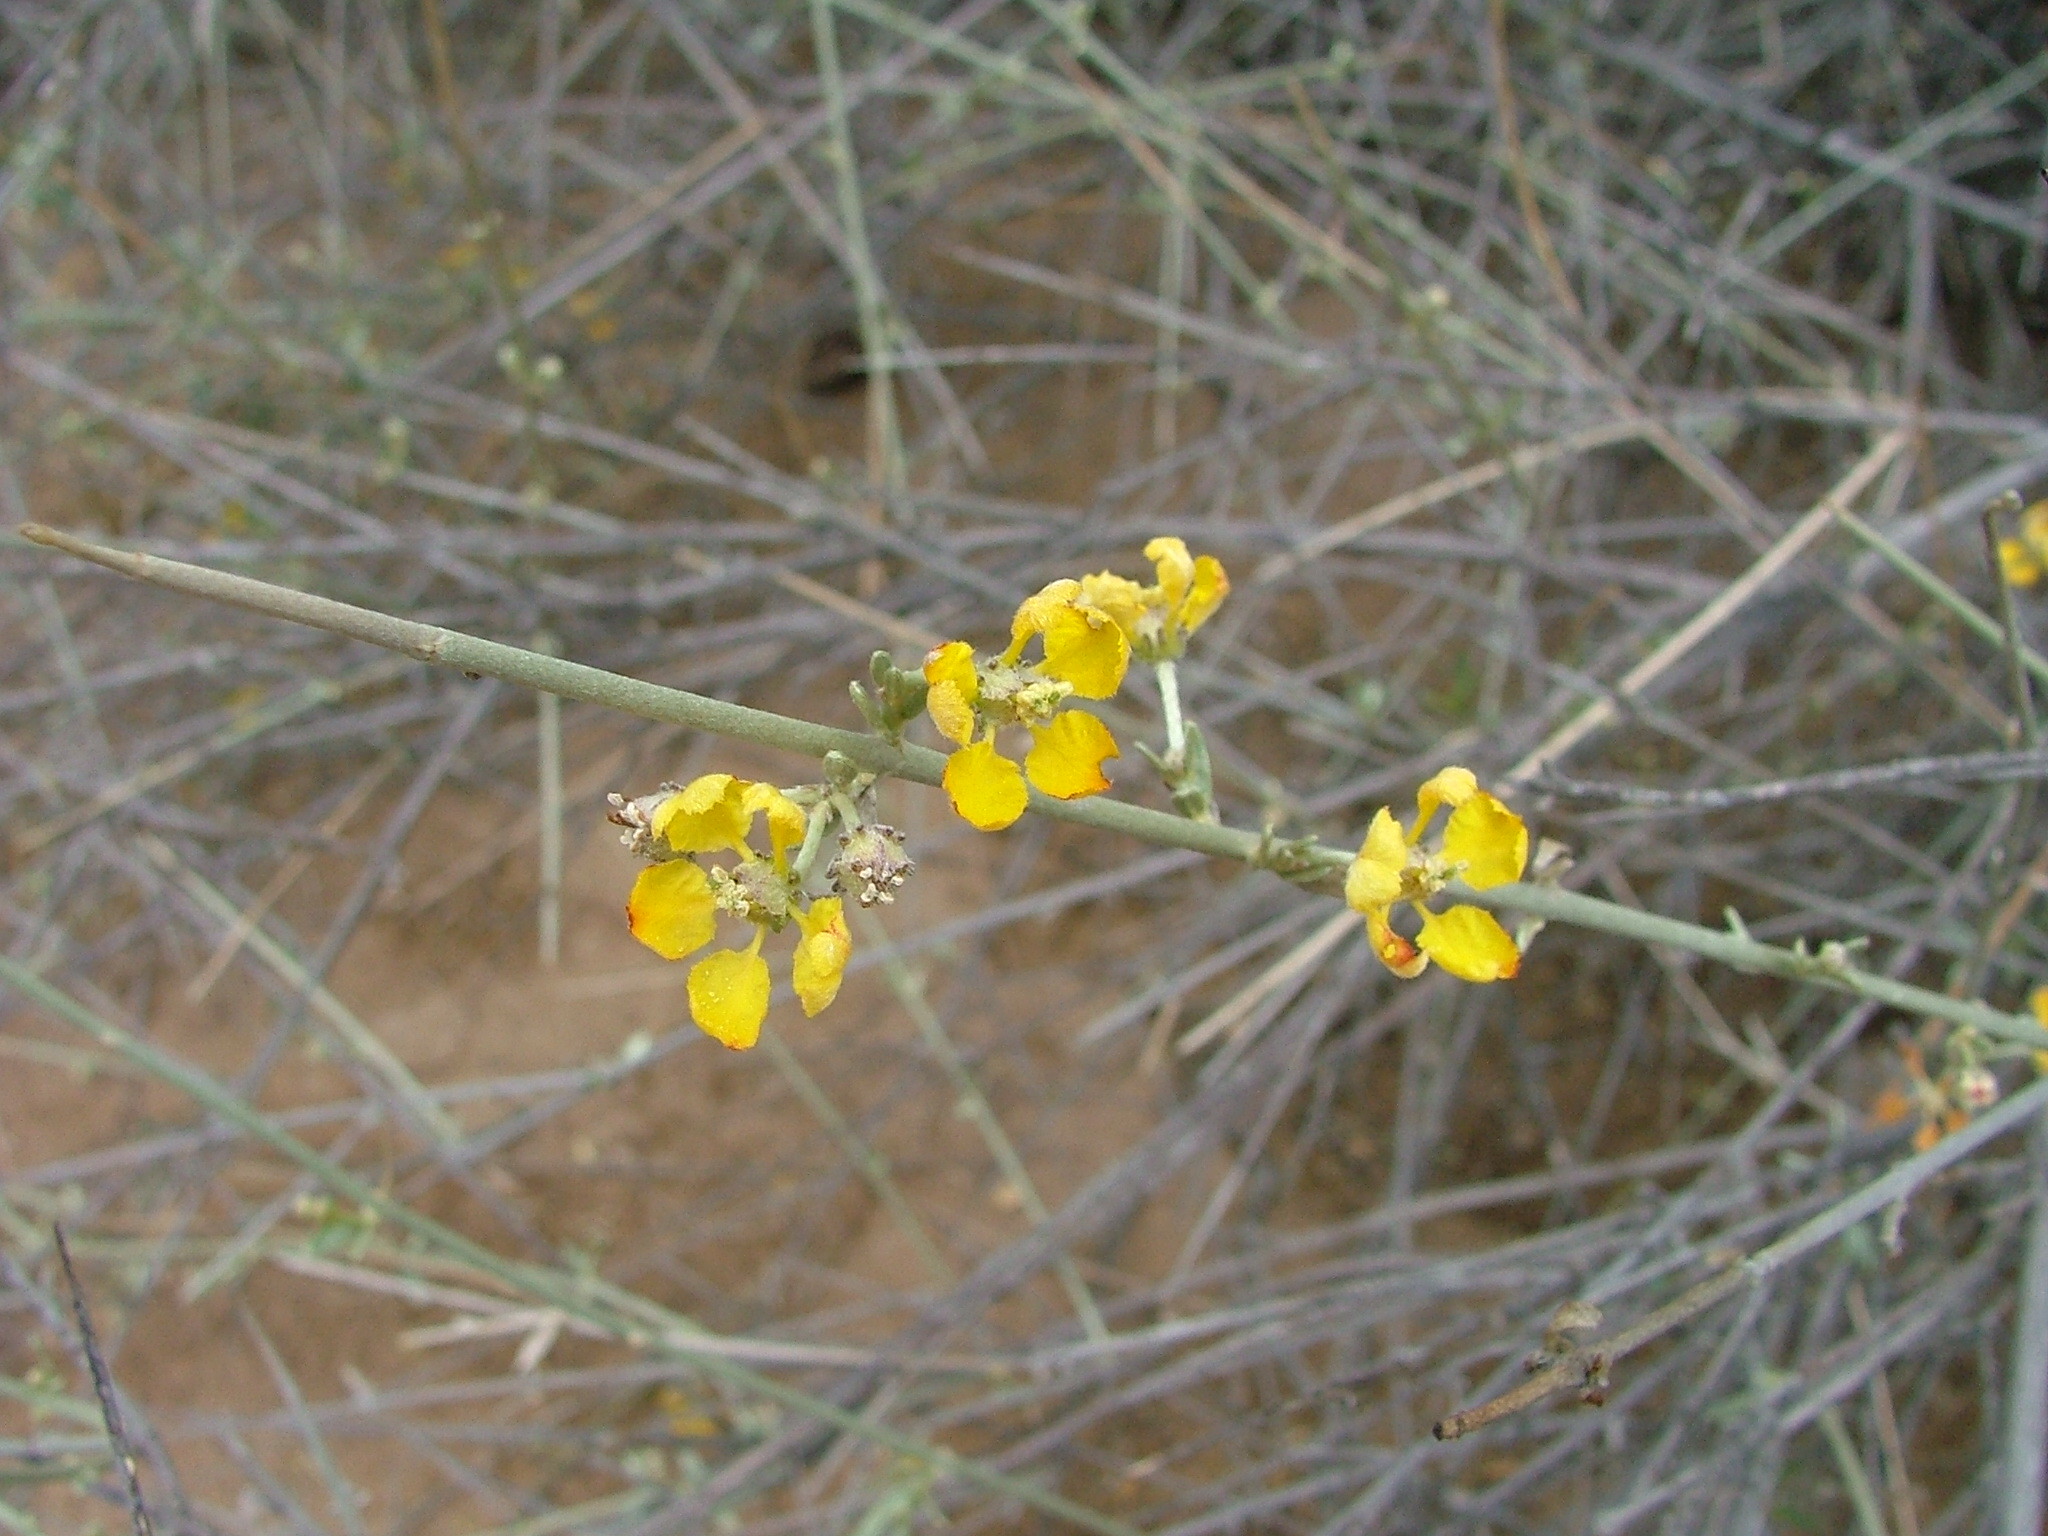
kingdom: Plantae
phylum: Tracheophyta
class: Magnoliopsida
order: Malpighiales
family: Malpighiaceae
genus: Tricomaria
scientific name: Tricomaria usillo
